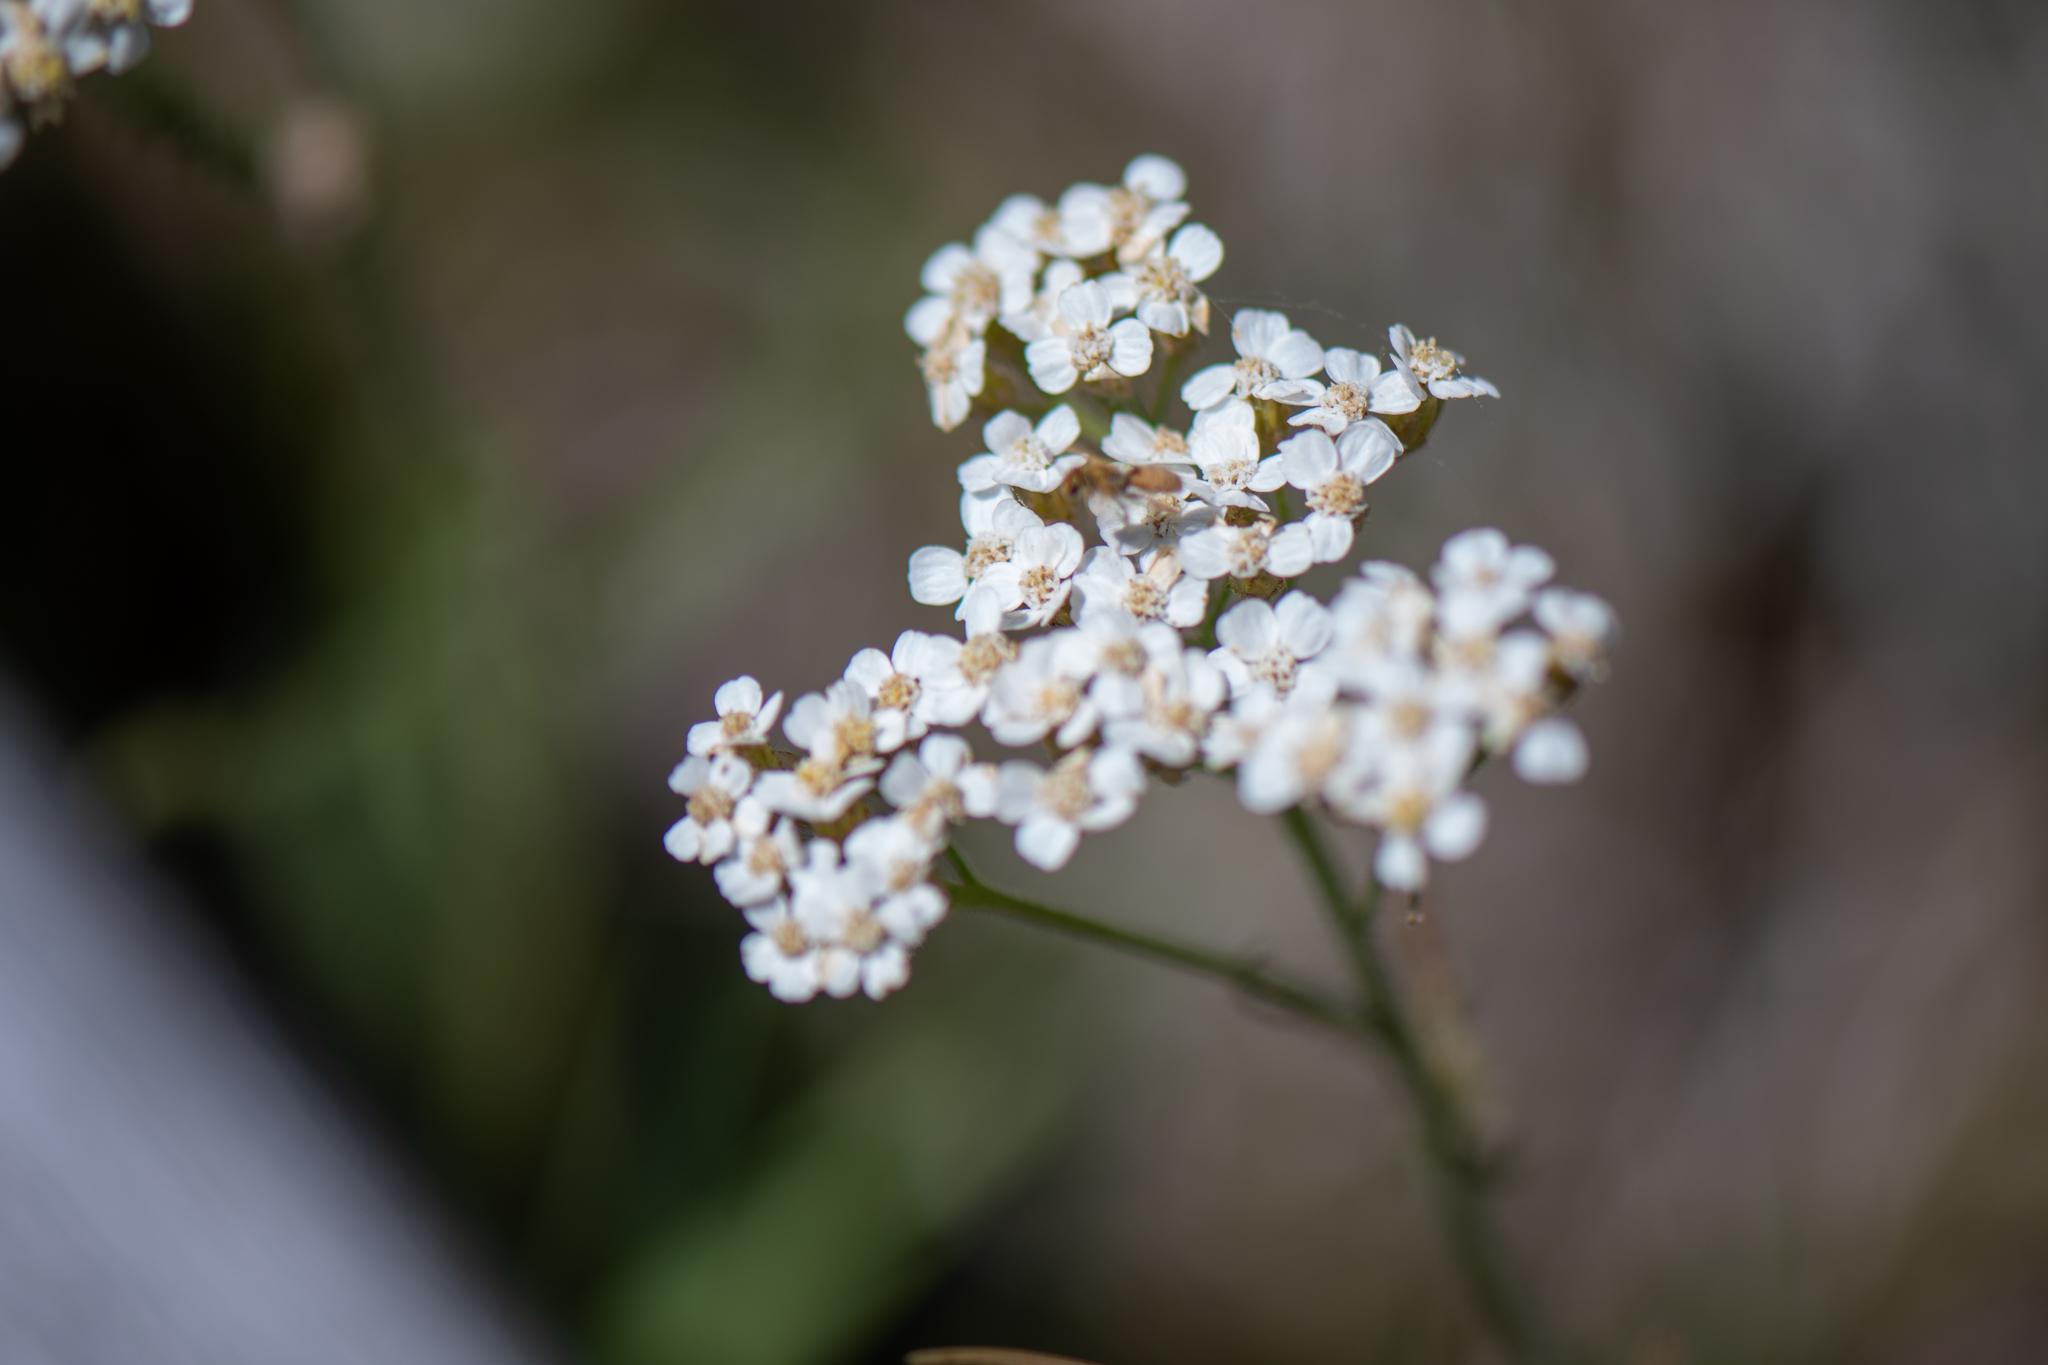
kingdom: Plantae
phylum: Tracheophyta
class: Magnoliopsida
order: Asterales
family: Asteraceae
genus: Achillea
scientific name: Achillea millefolium
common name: Yarrow
